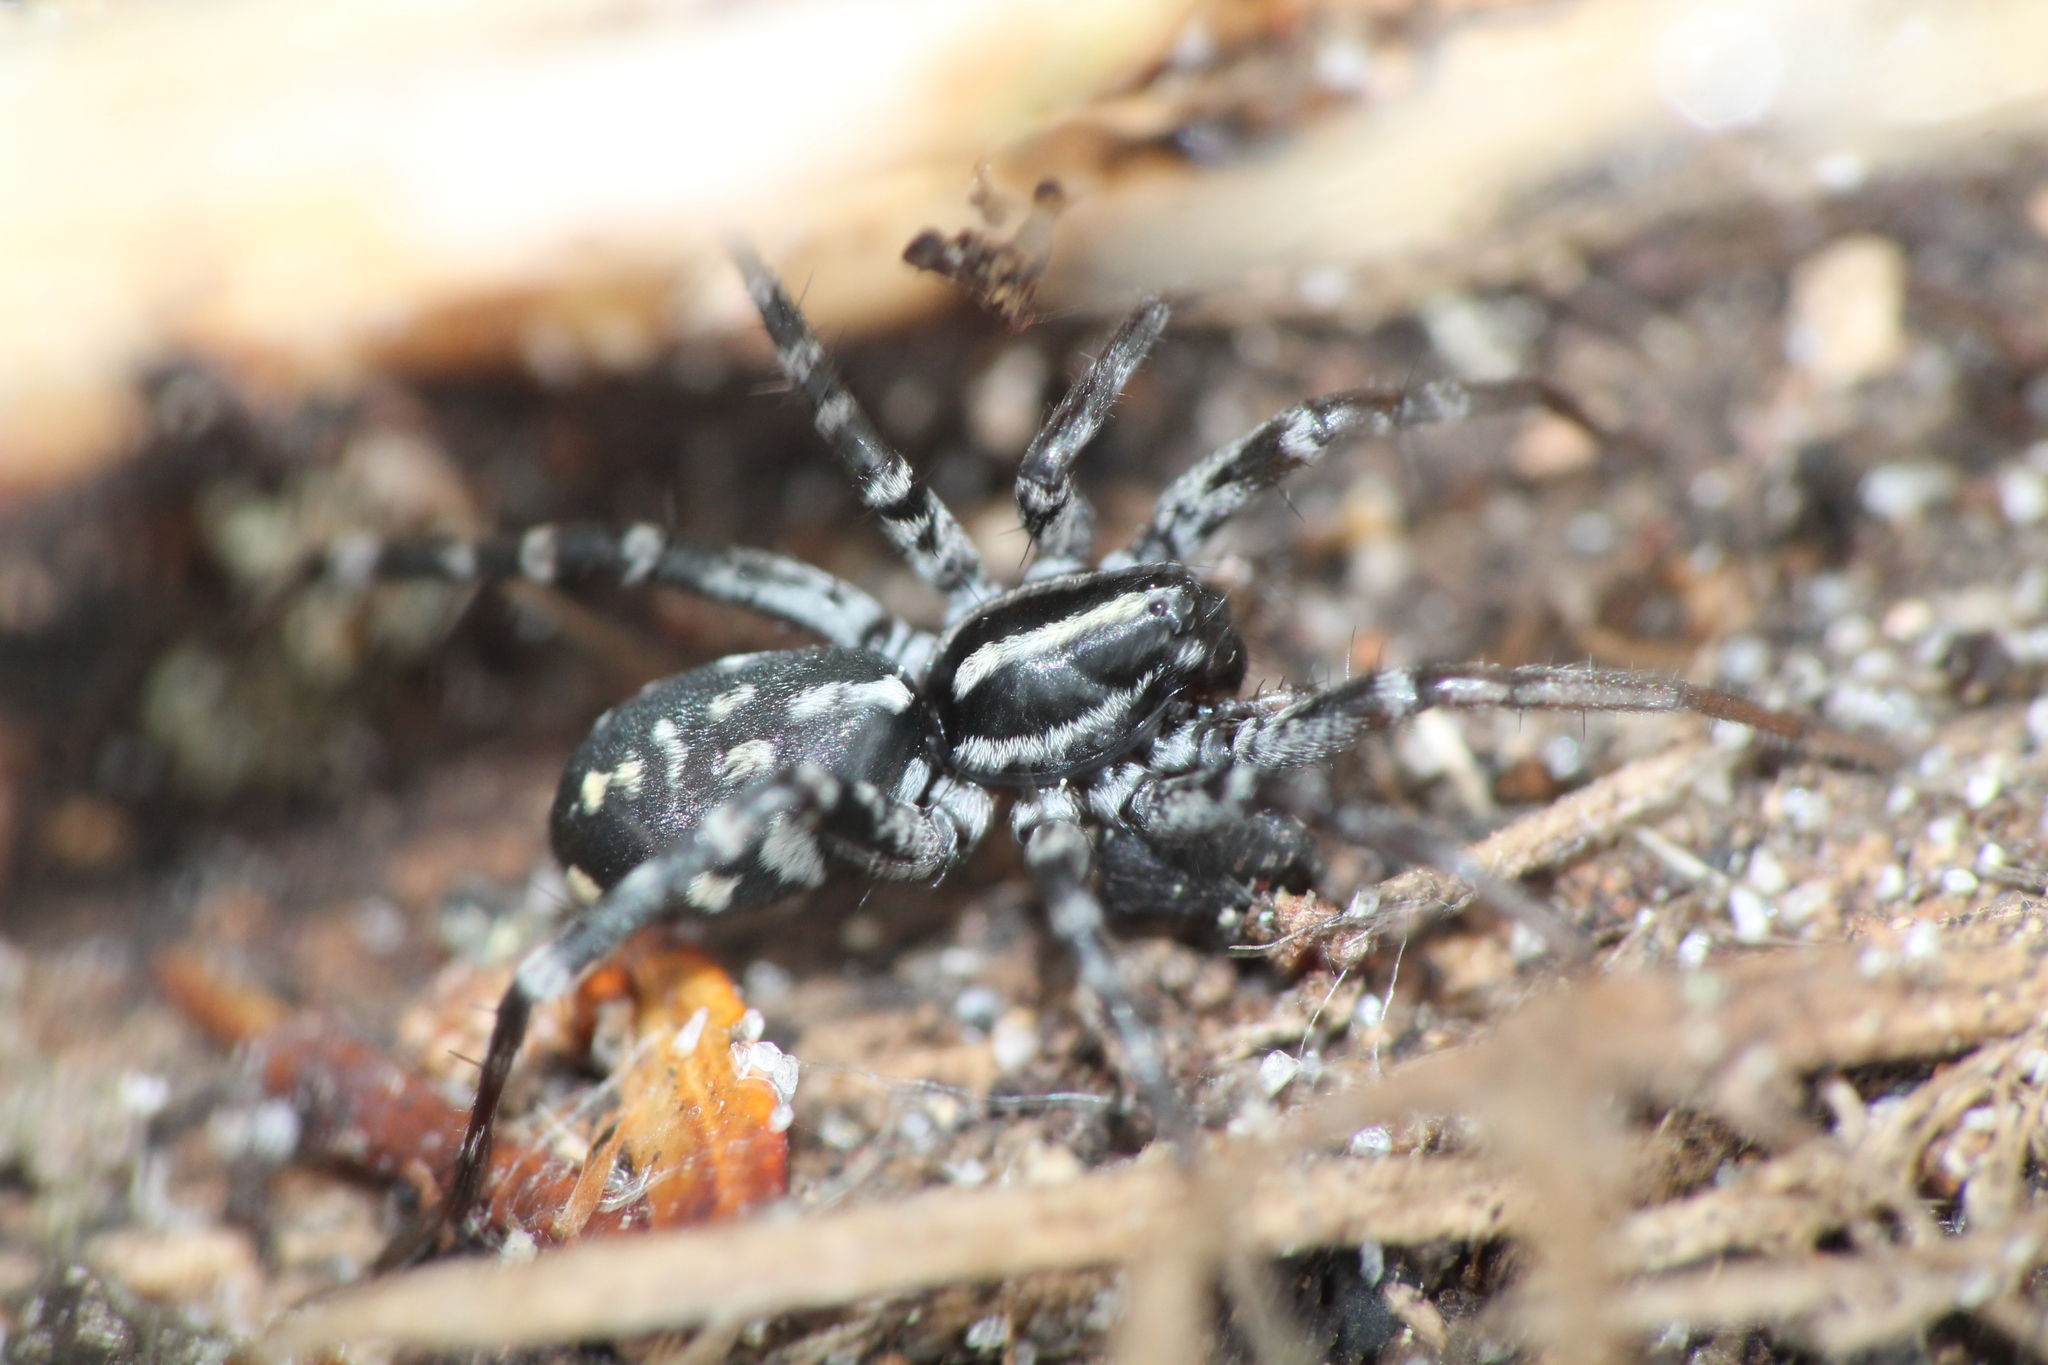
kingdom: Animalia
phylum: Arthropoda
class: Arachnida
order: Araneae
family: Corinnidae
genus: Nyssus
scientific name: Nyssus coloripes
